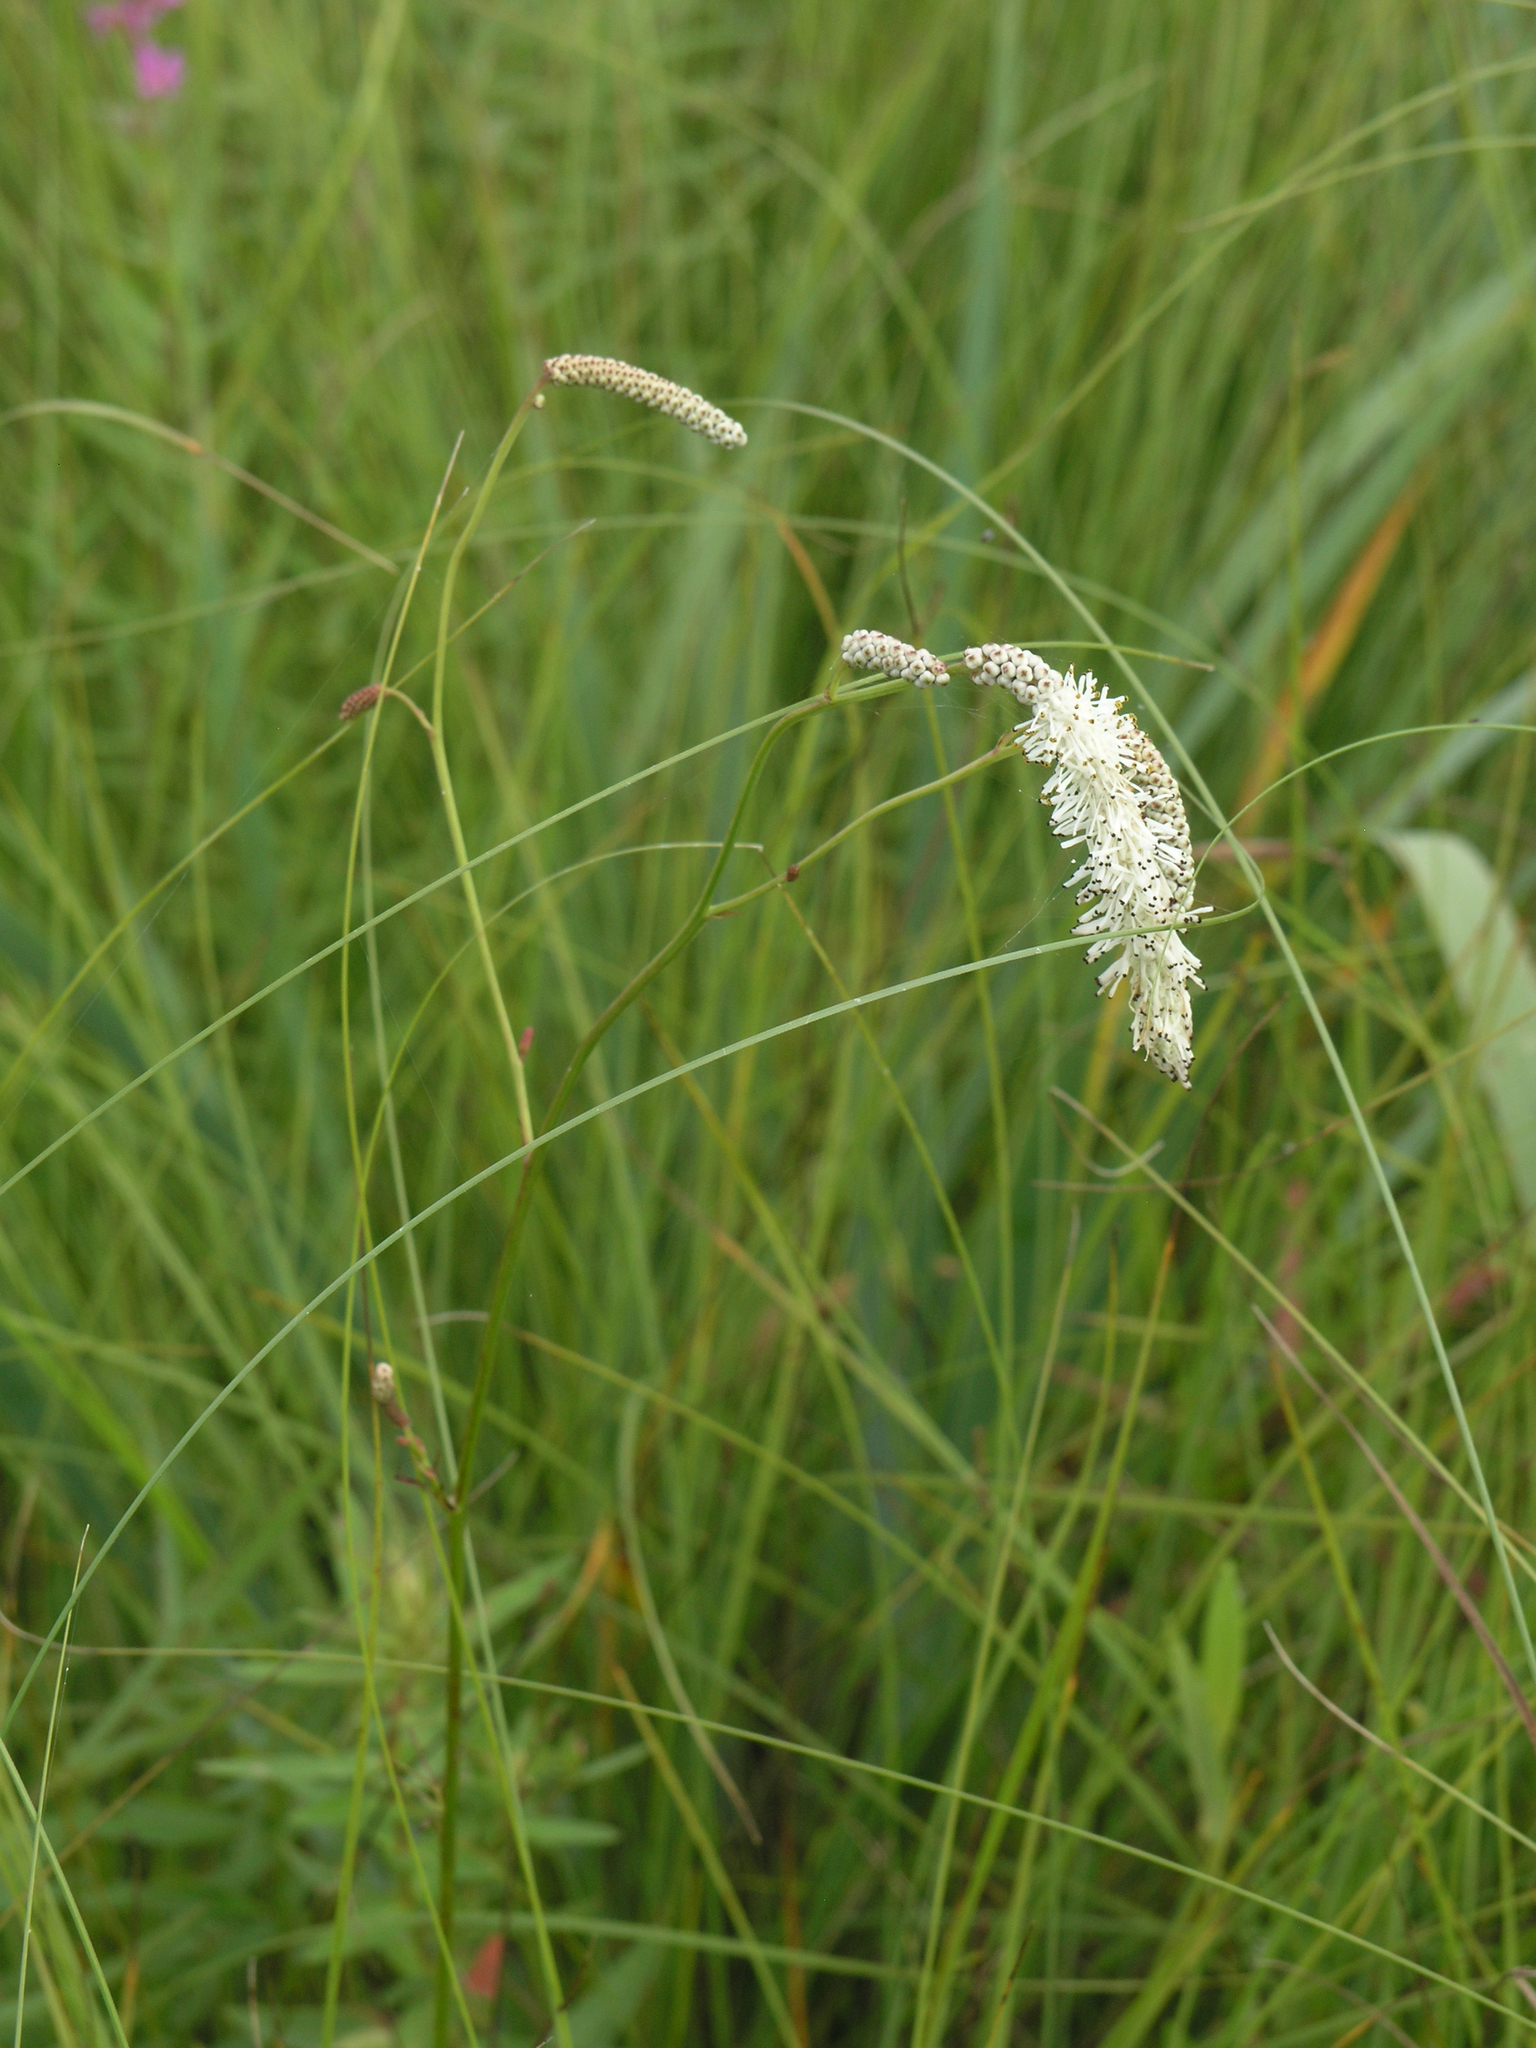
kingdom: Plantae
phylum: Tracheophyta
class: Magnoliopsida
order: Rosales
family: Rosaceae
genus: Poterium
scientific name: Poterium tenuifolium
